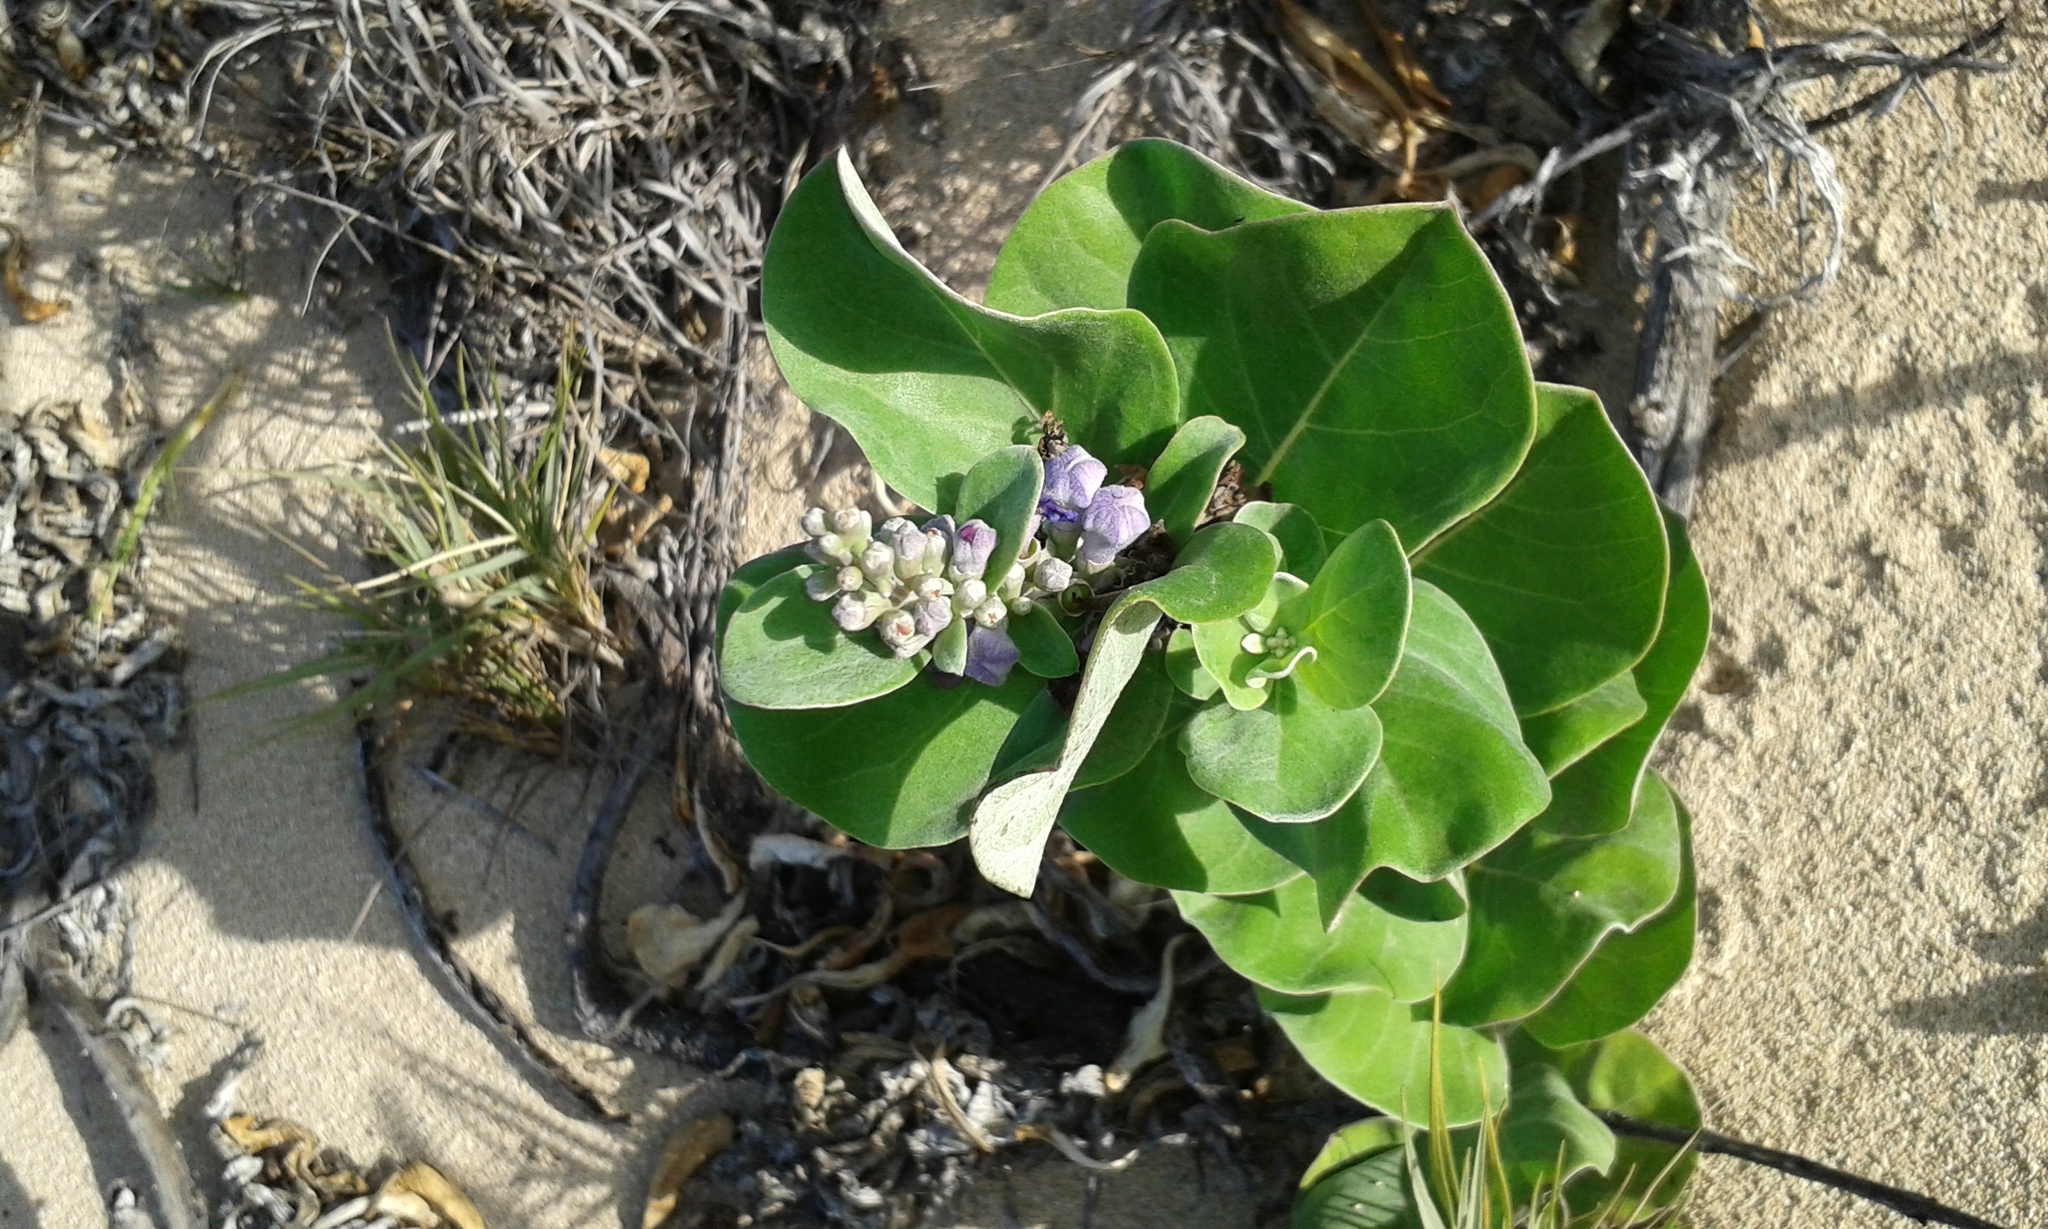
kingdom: Plantae
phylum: Tracheophyta
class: Magnoliopsida
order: Lamiales
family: Lamiaceae
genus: Vitex
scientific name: Vitex rotundifolia
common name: Beach vitex
